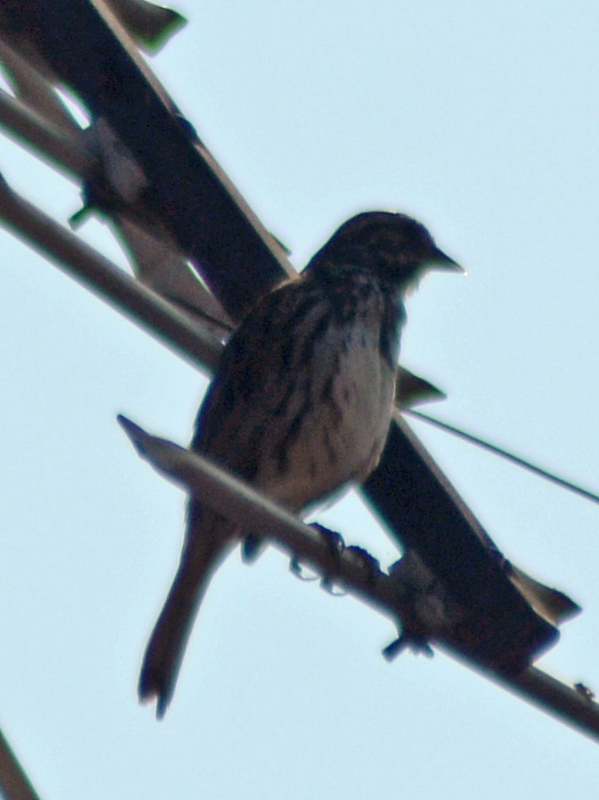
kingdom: Animalia
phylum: Chordata
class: Aves
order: Passeriformes
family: Passerellidae
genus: Melospiza
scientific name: Melospiza melodia
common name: Song sparrow
